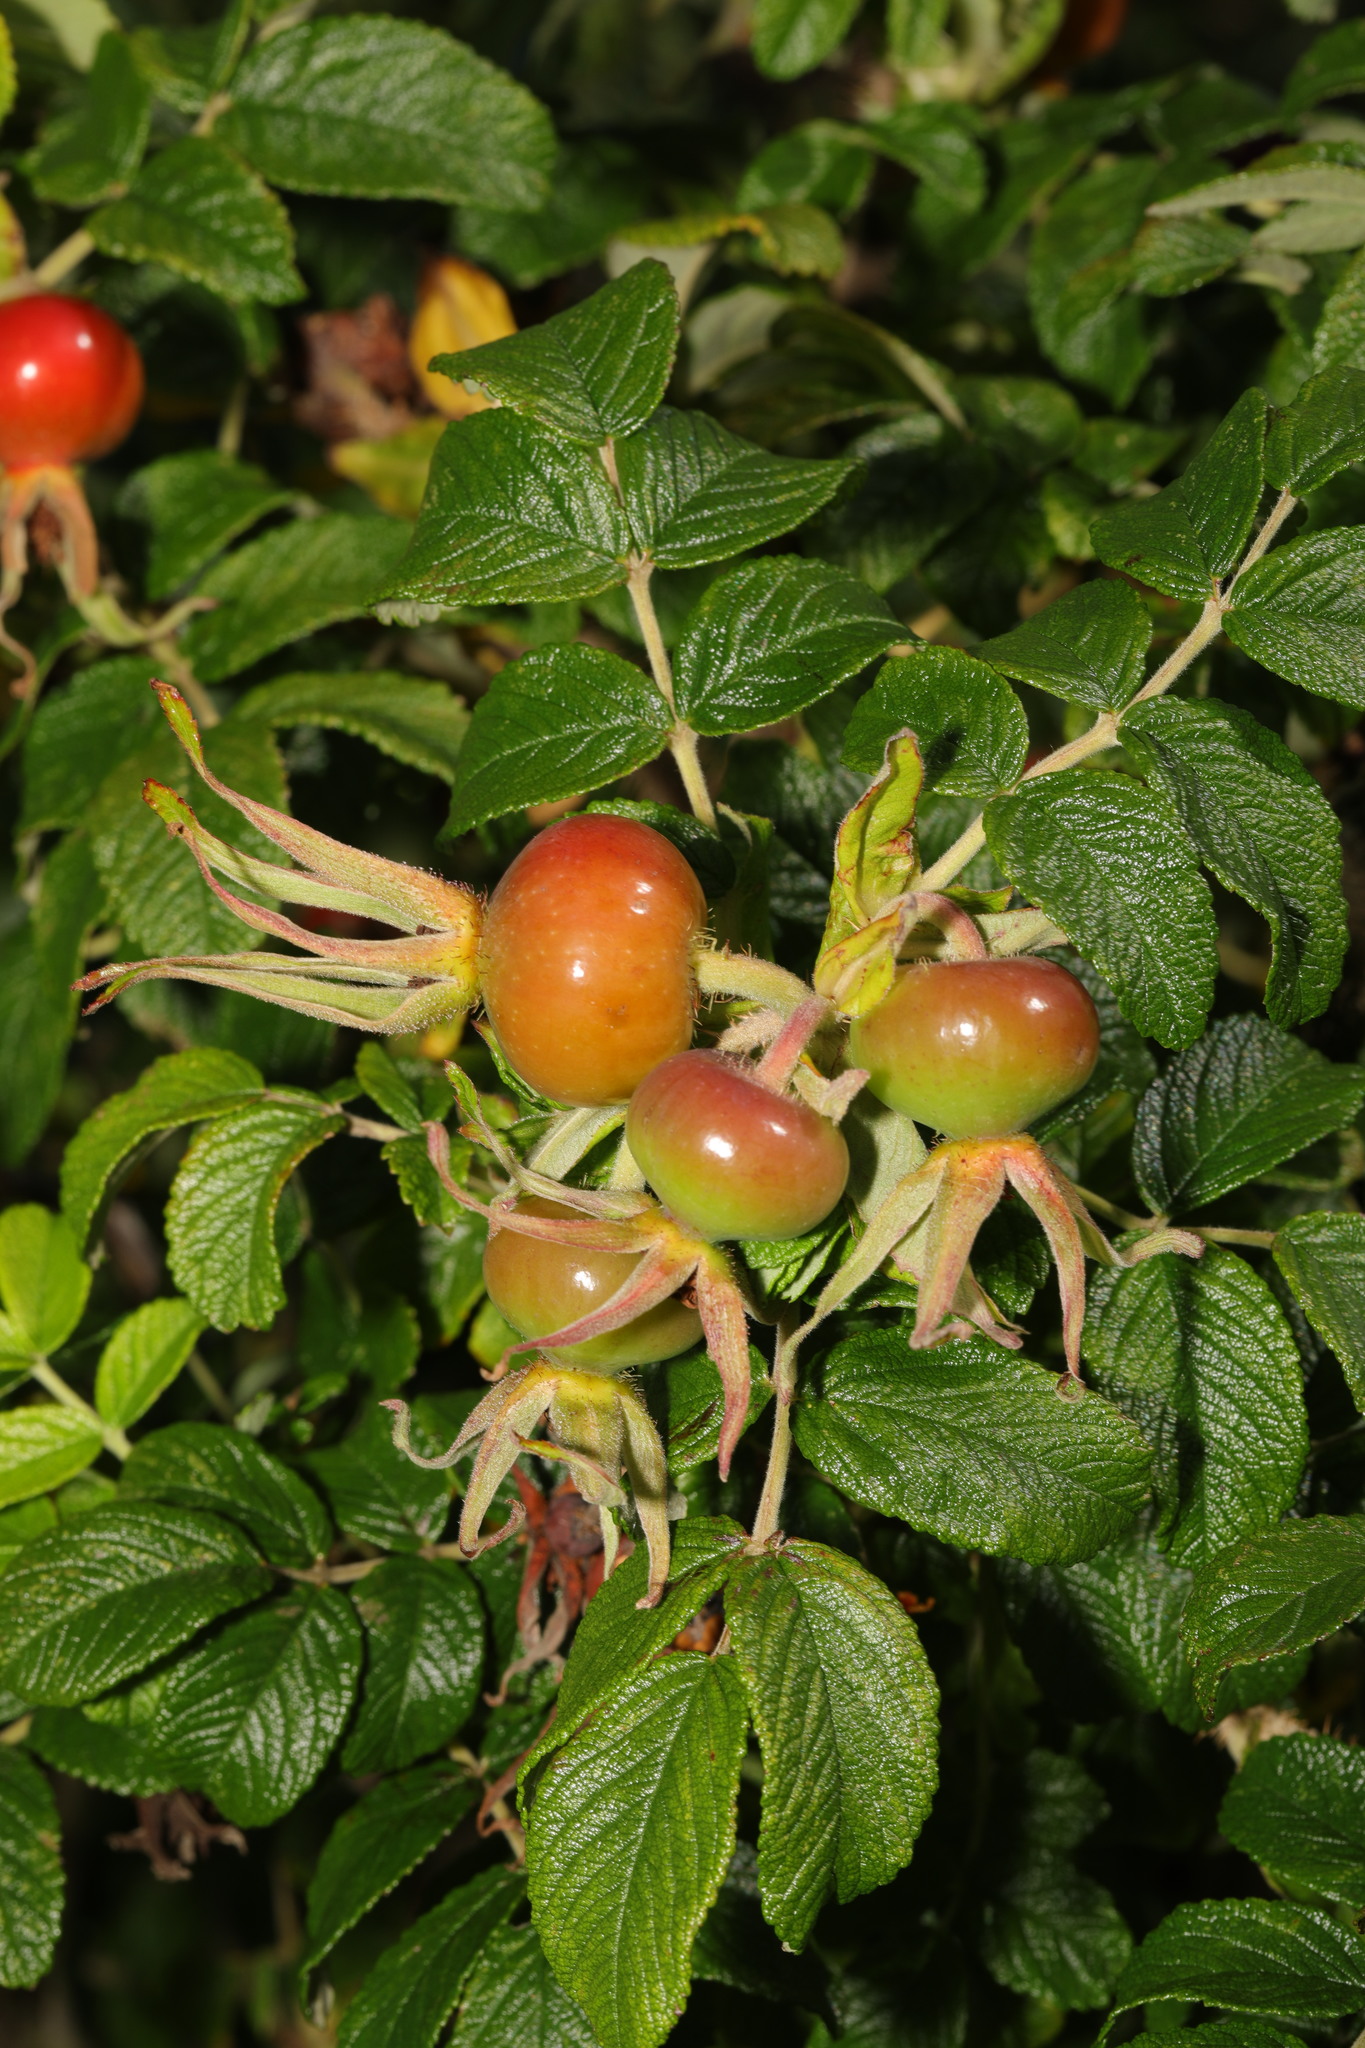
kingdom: Plantae
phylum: Tracheophyta
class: Magnoliopsida
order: Rosales
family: Rosaceae
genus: Rosa
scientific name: Rosa rugosa
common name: Japanese rose
